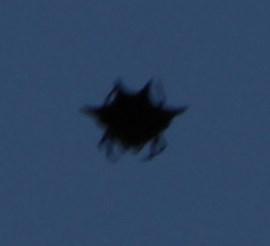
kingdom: Animalia
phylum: Arthropoda
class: Arachnida
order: Araneae
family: Araneidae
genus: Gasteracantha
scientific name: Gasteracantha sanguinolenta
